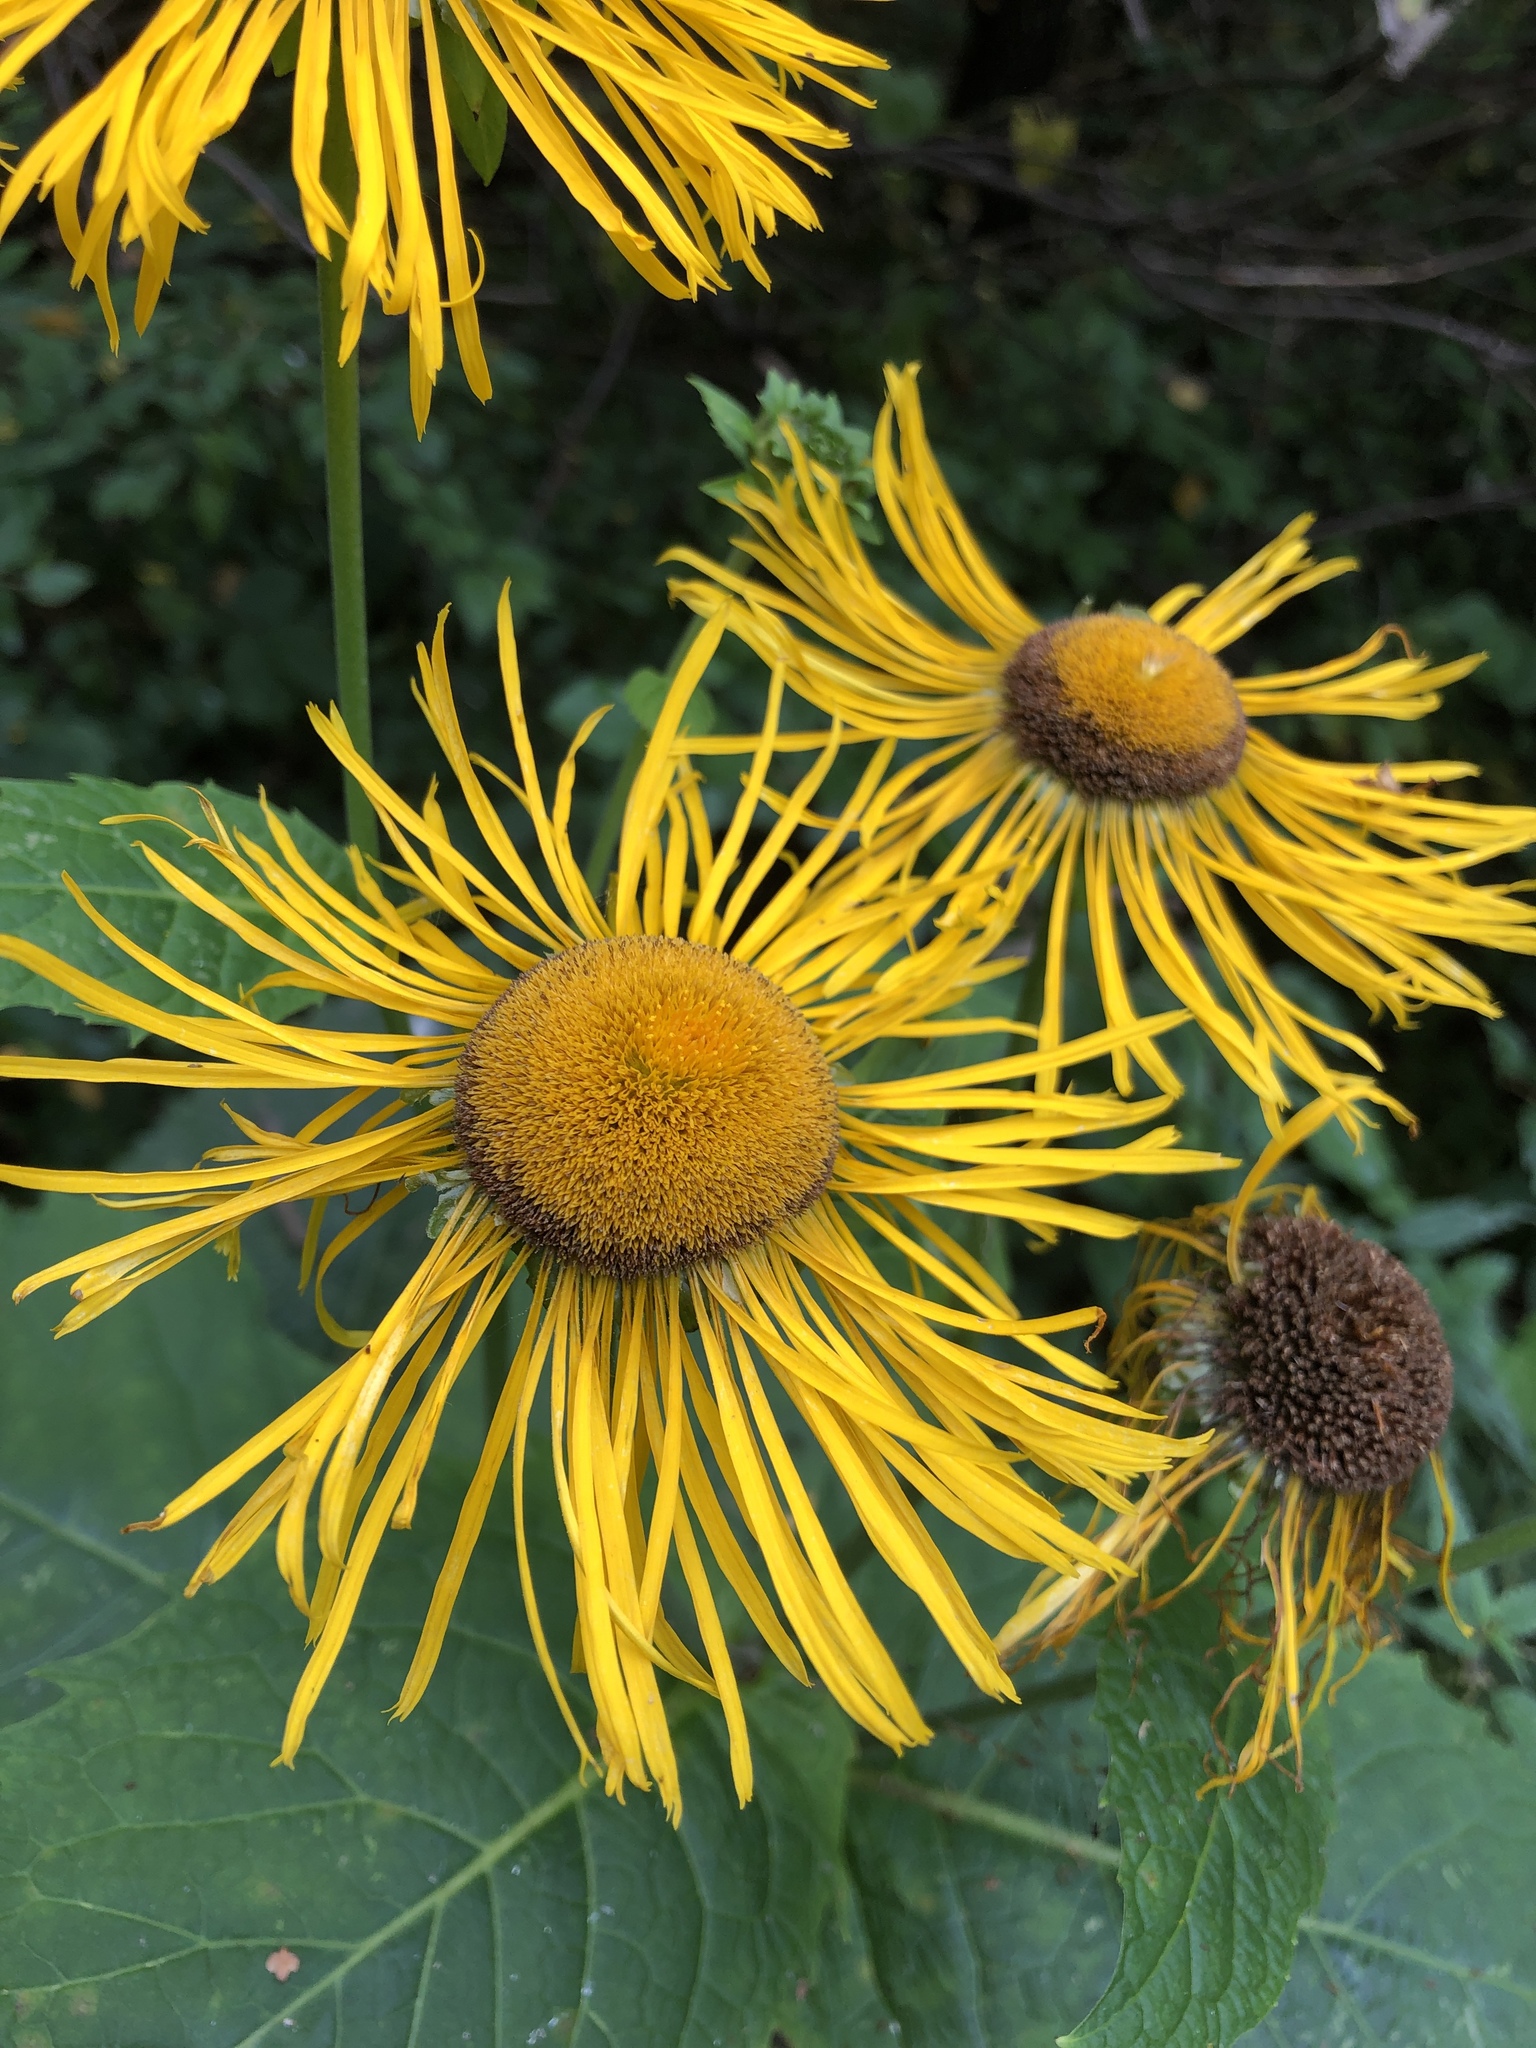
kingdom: Plantae
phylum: Tracheophyta
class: Magnoliopsida
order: Asterales
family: Asteraceae
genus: Telekia
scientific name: Telekia speciosa
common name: Yellow oxeye
